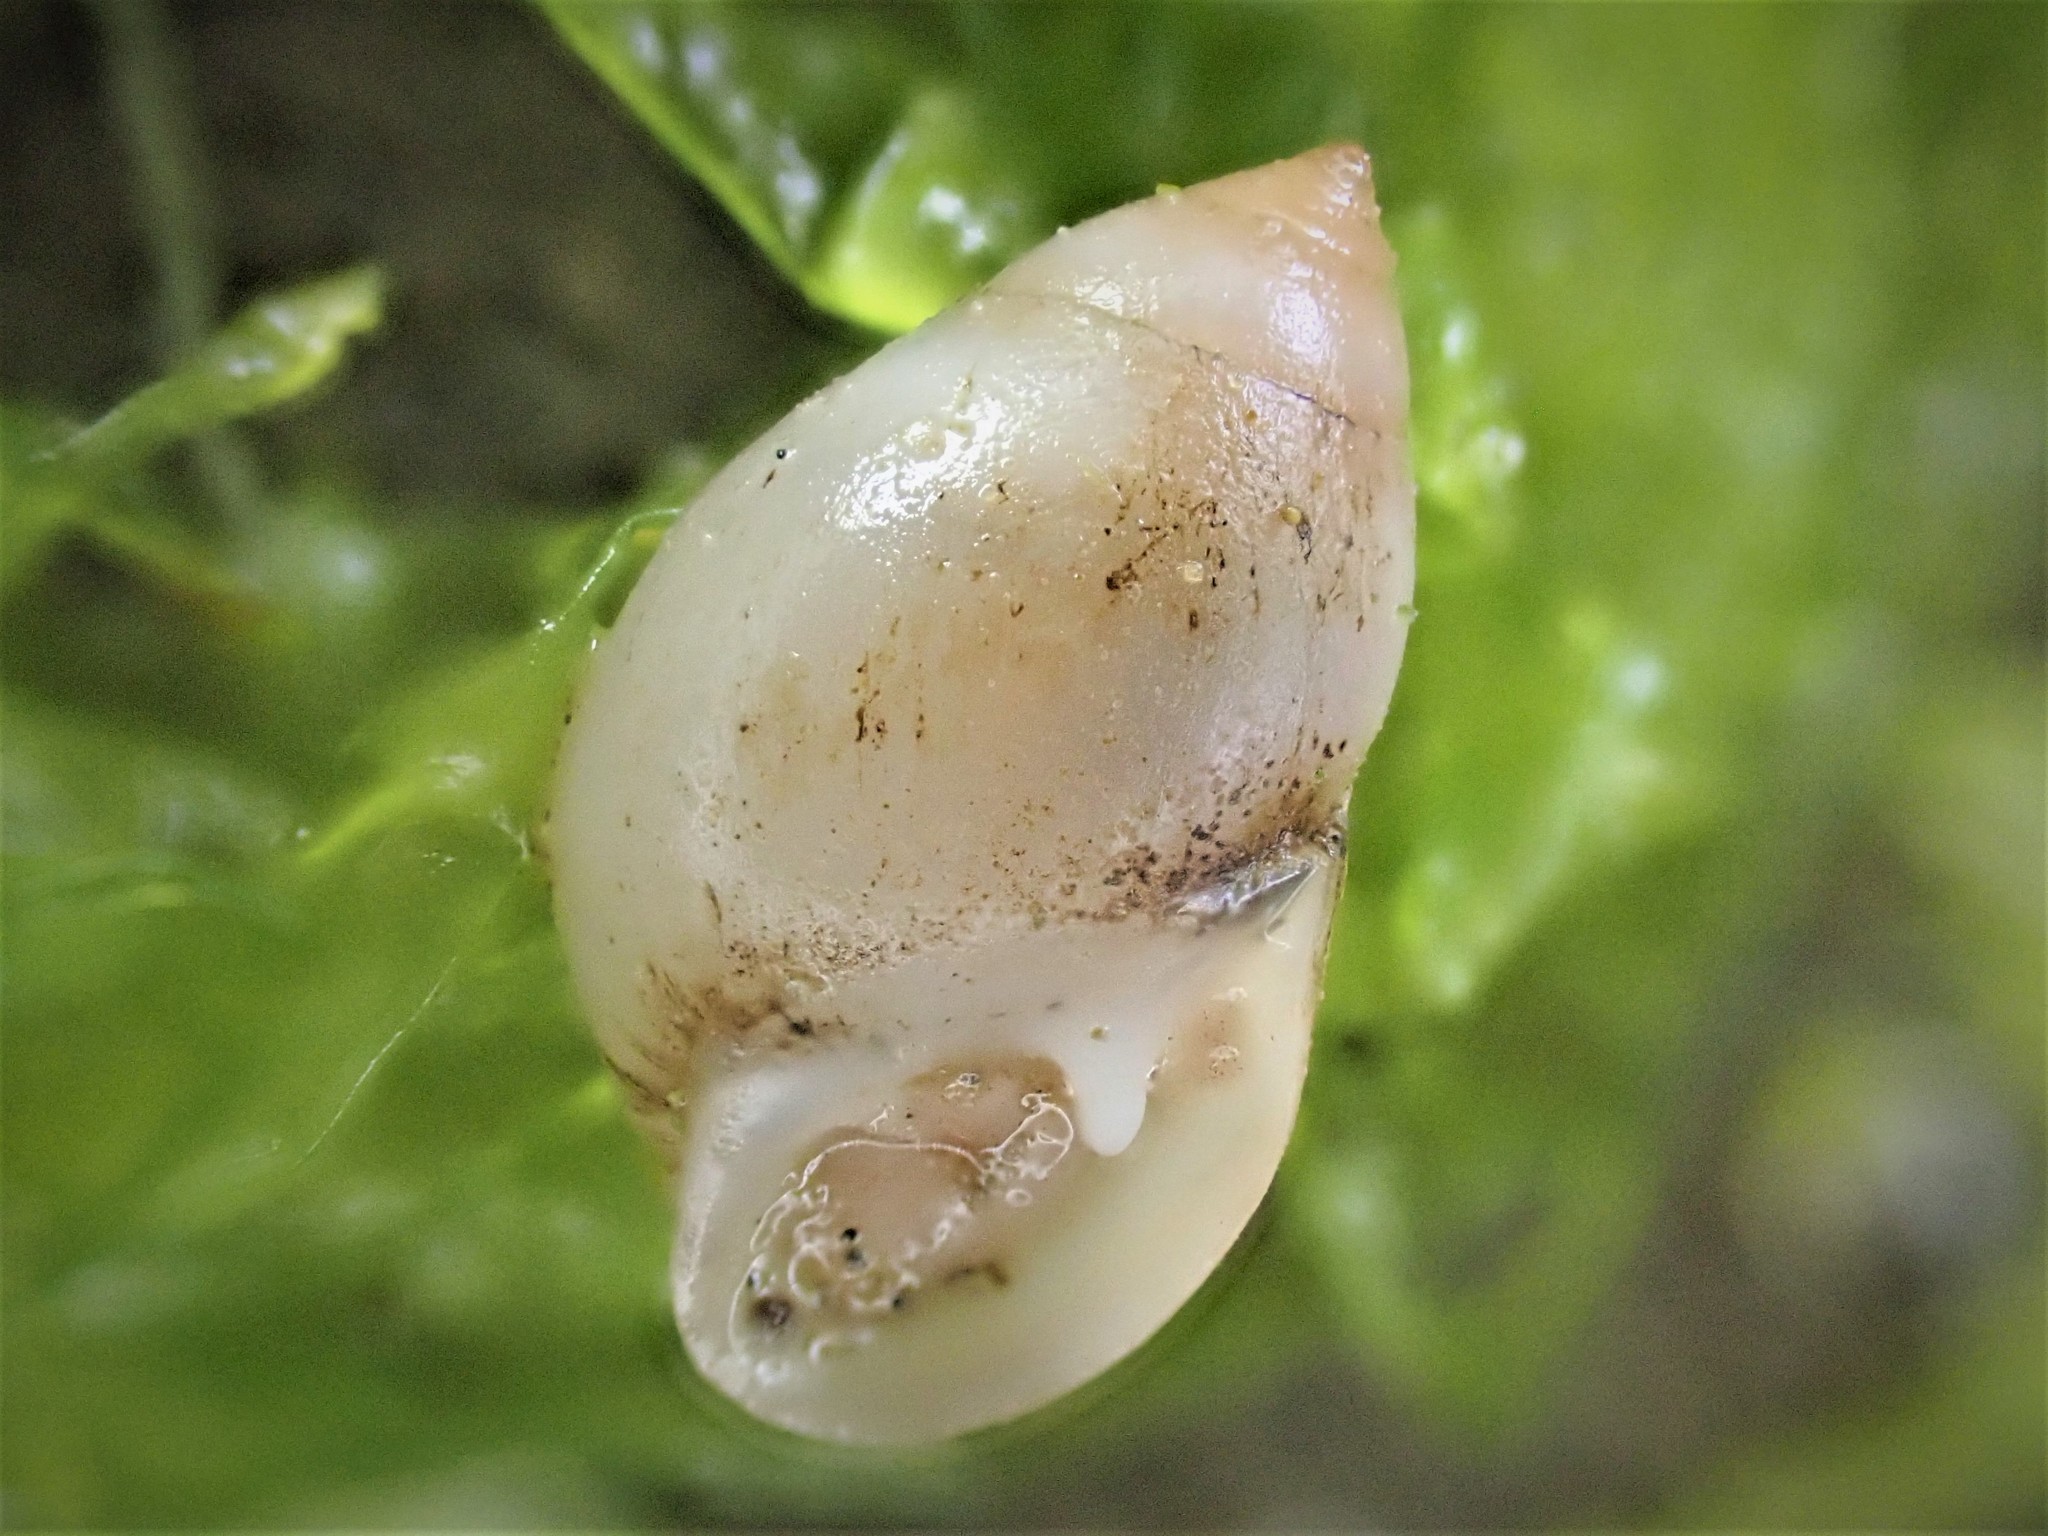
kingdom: Animalia
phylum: Mollusca
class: Gastropoda
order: Ellobiida
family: Ellobiidae
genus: Marinula
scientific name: Marinula filholi
